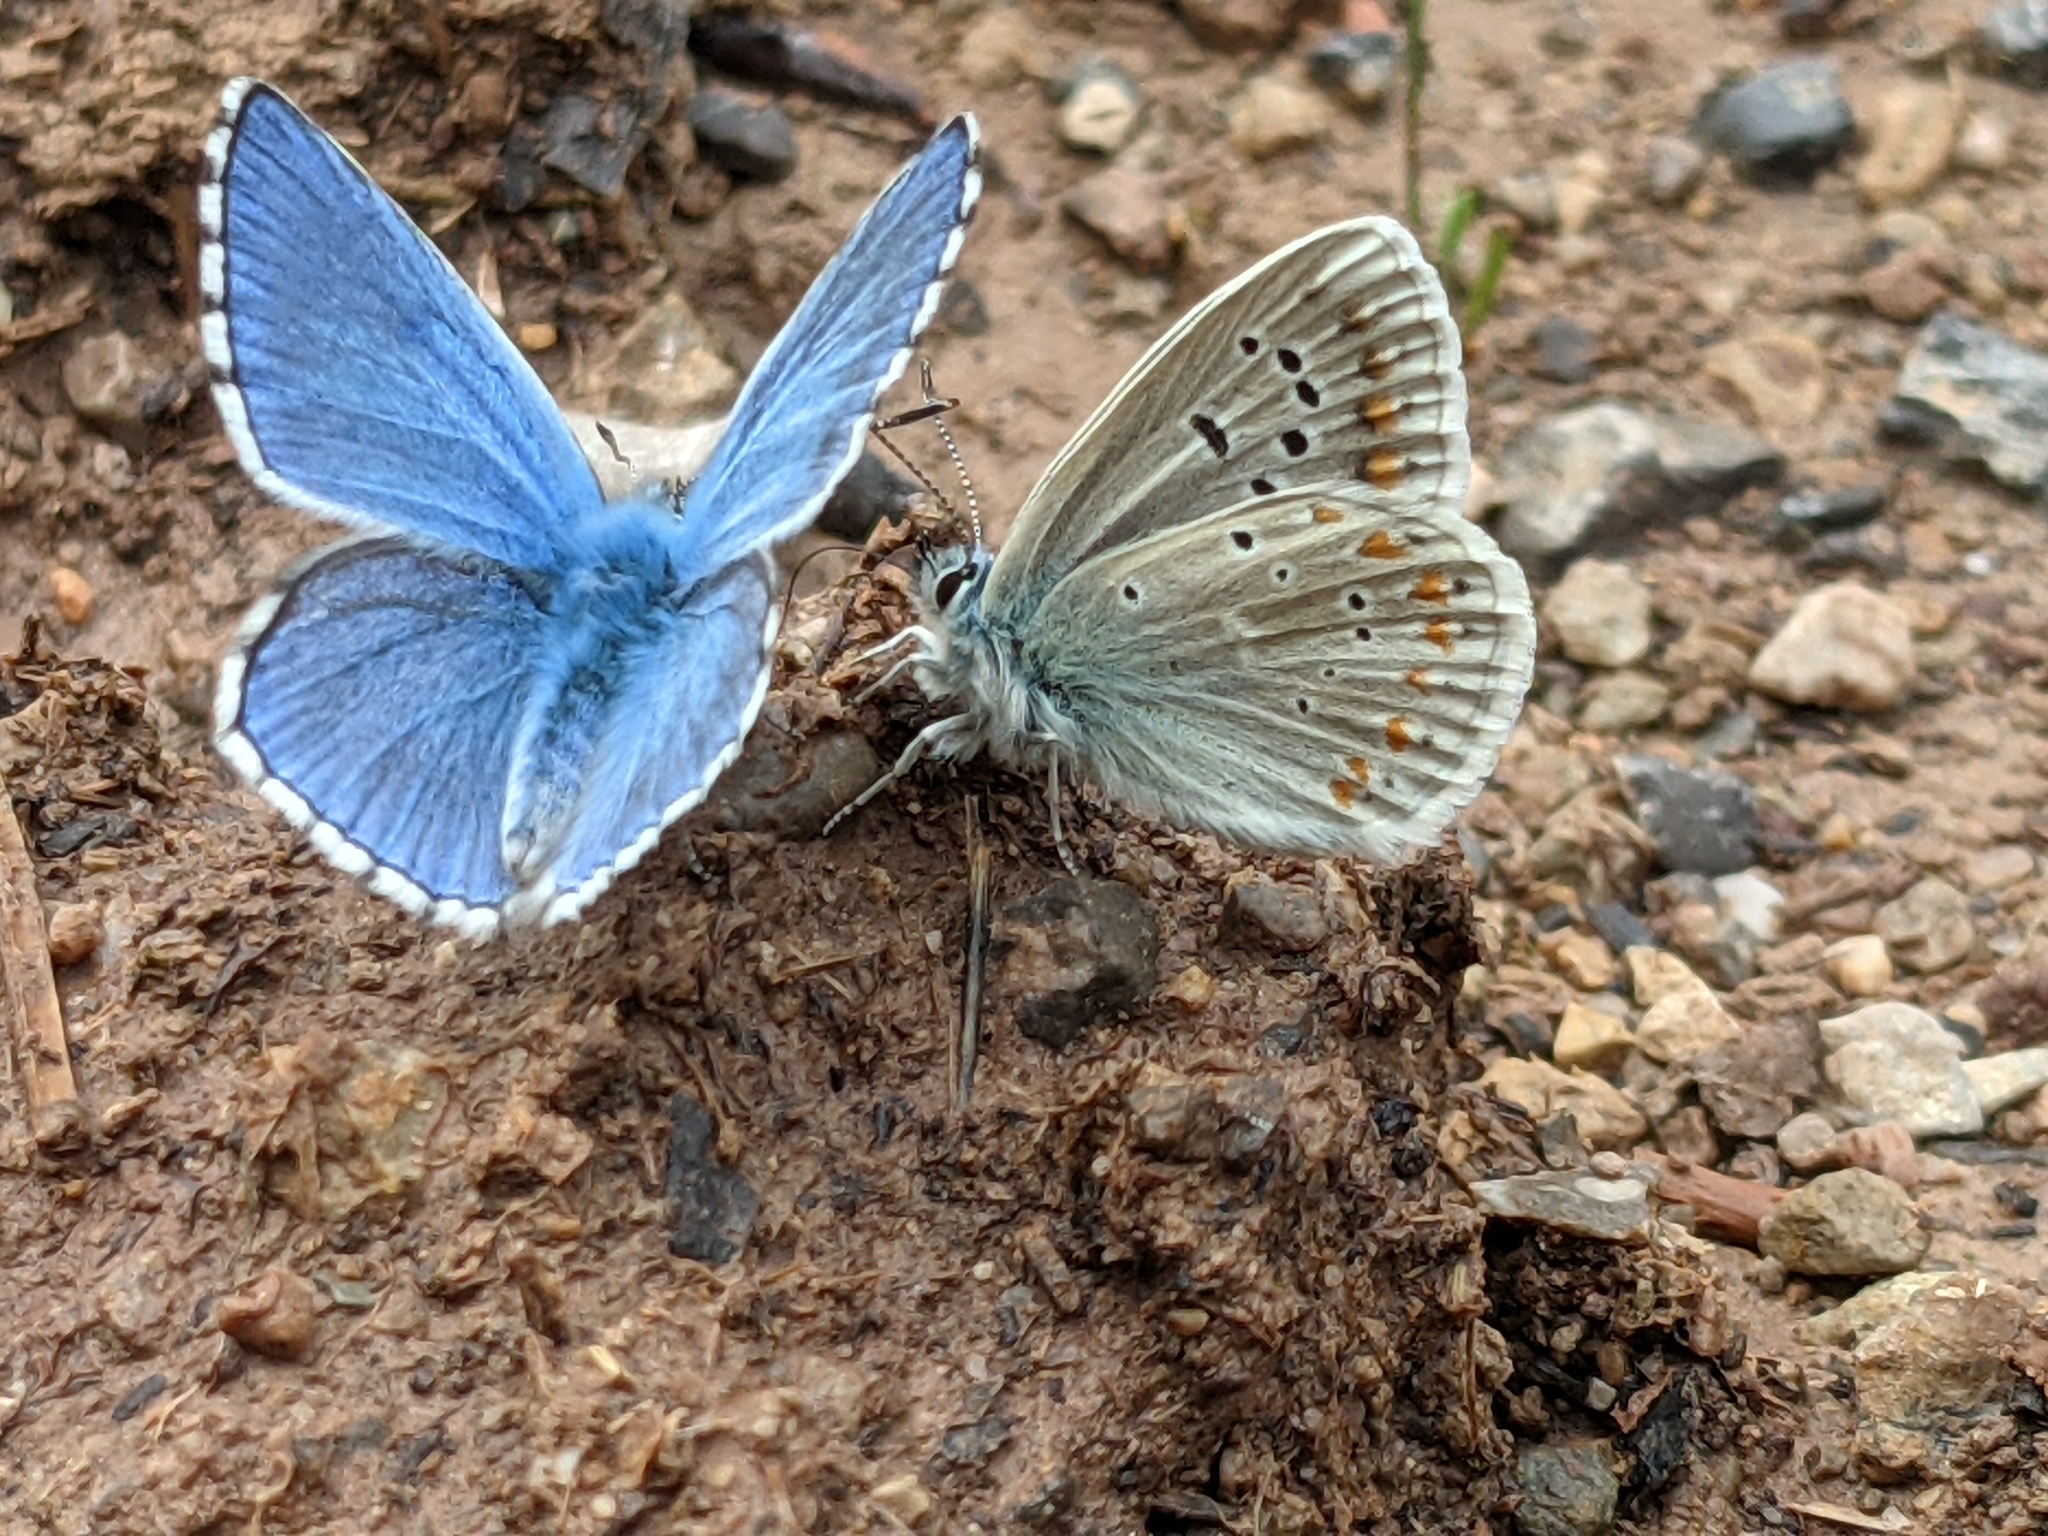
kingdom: Animalia
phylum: Arthropoda
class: Insecta
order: Lepidoptera
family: Lycaenidae
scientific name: Lycaenidae
